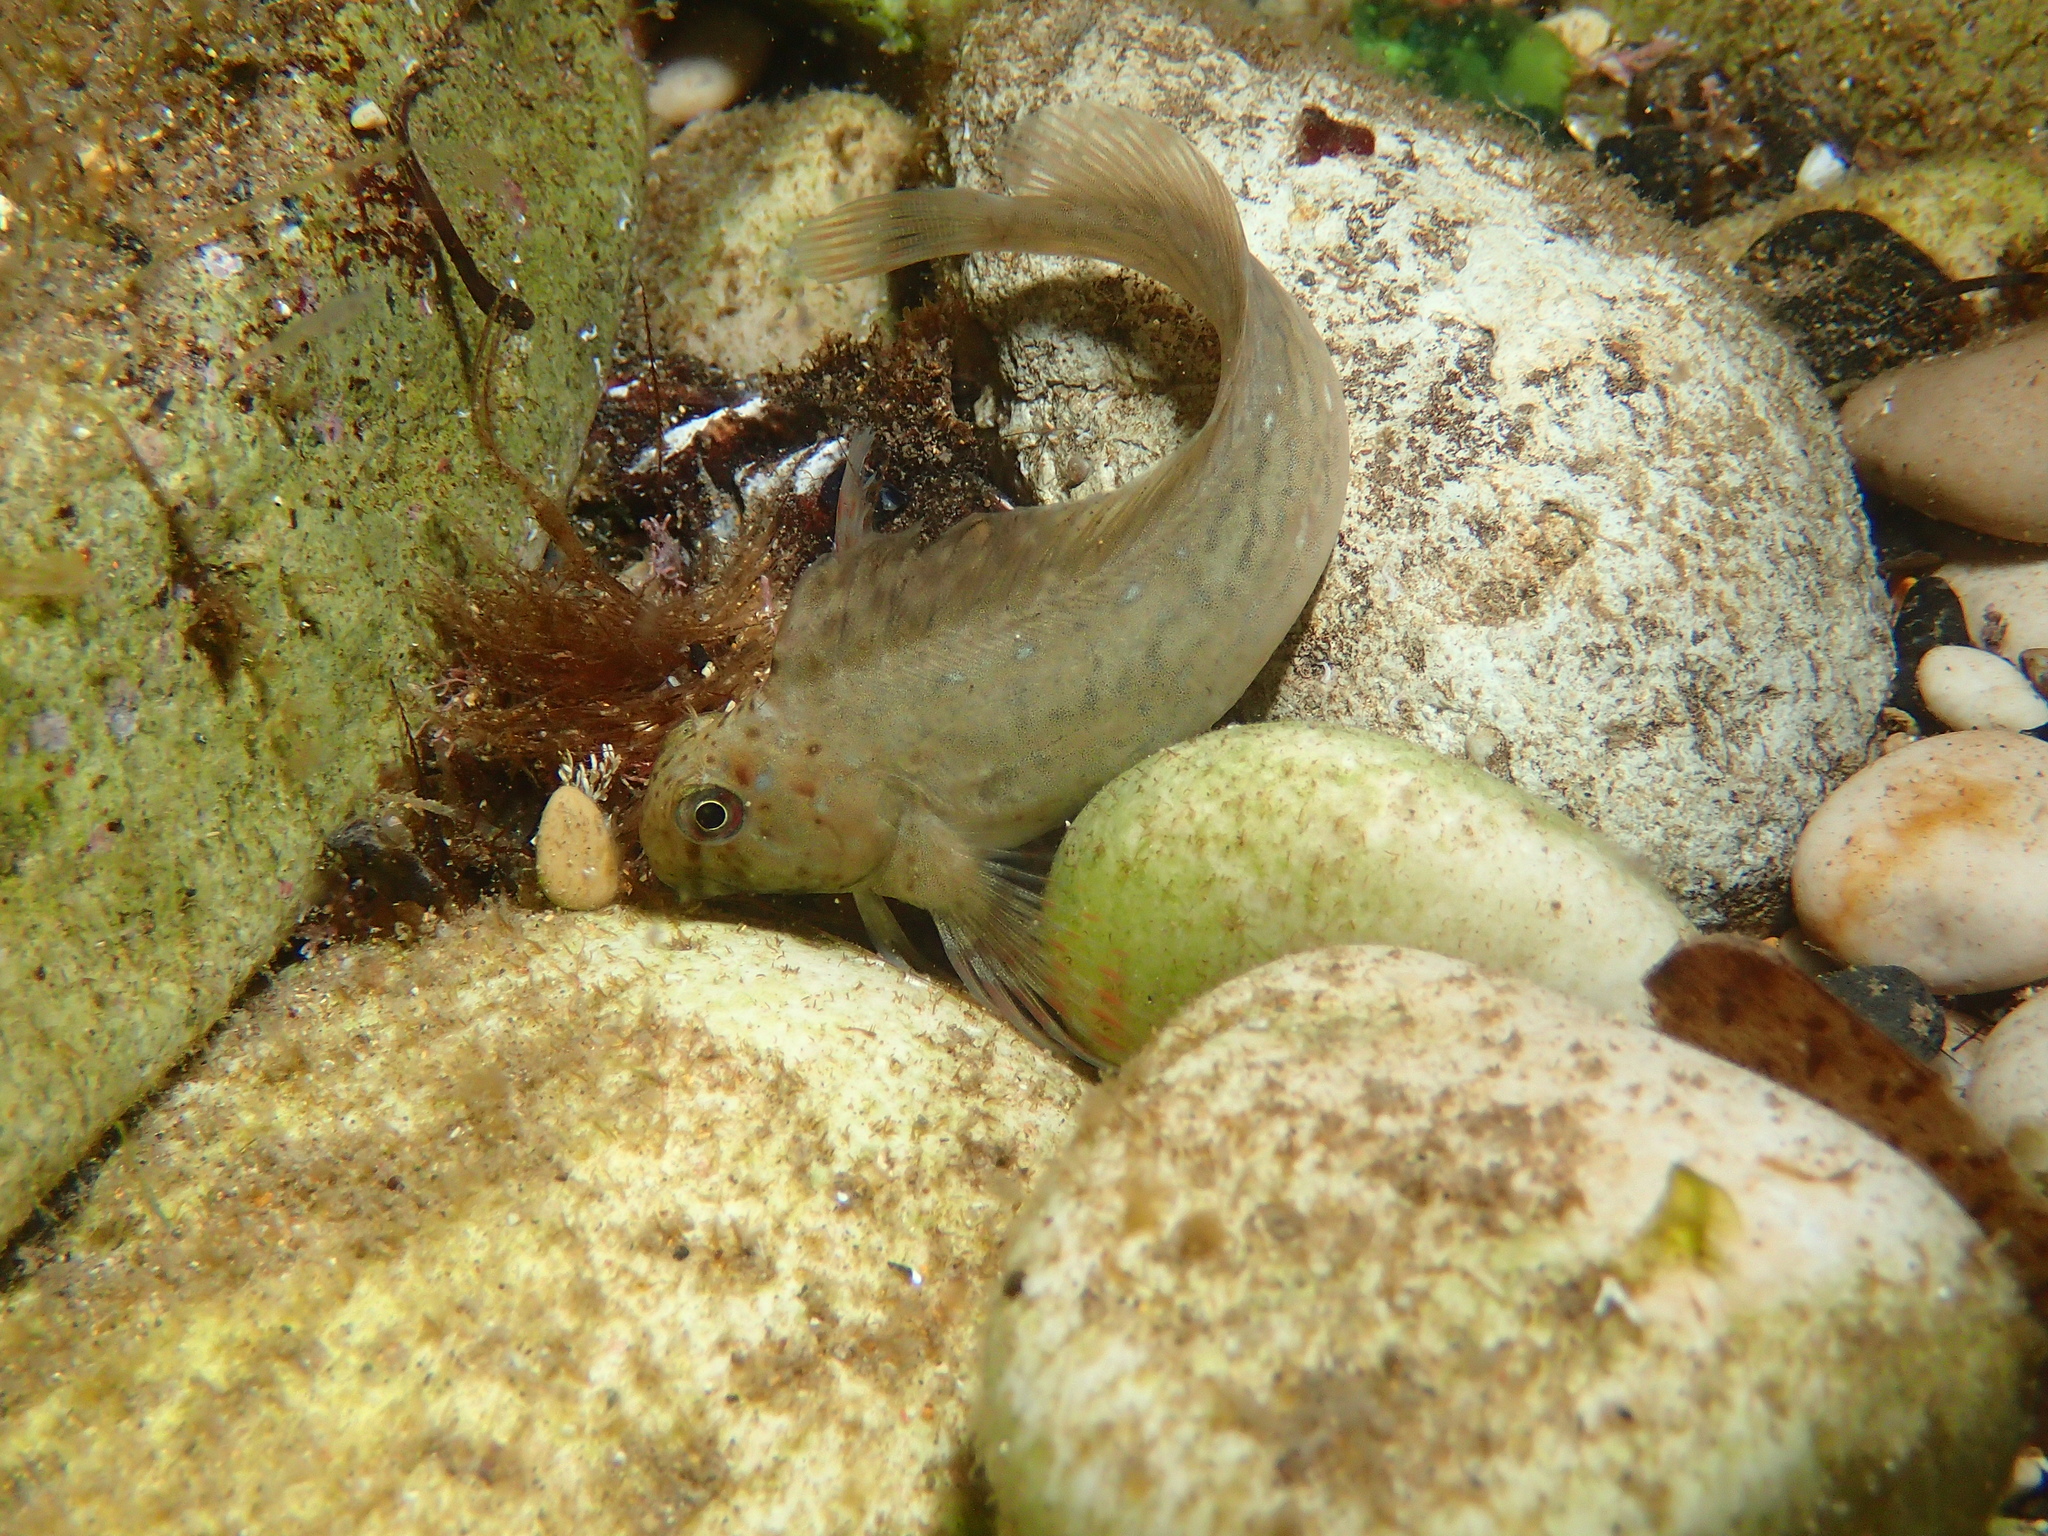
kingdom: Animalia
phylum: Chordata
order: Perciformes
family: Blenniidae
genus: Parablennius
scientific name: Parablennius sanguinolentus
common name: Black sea blenny
